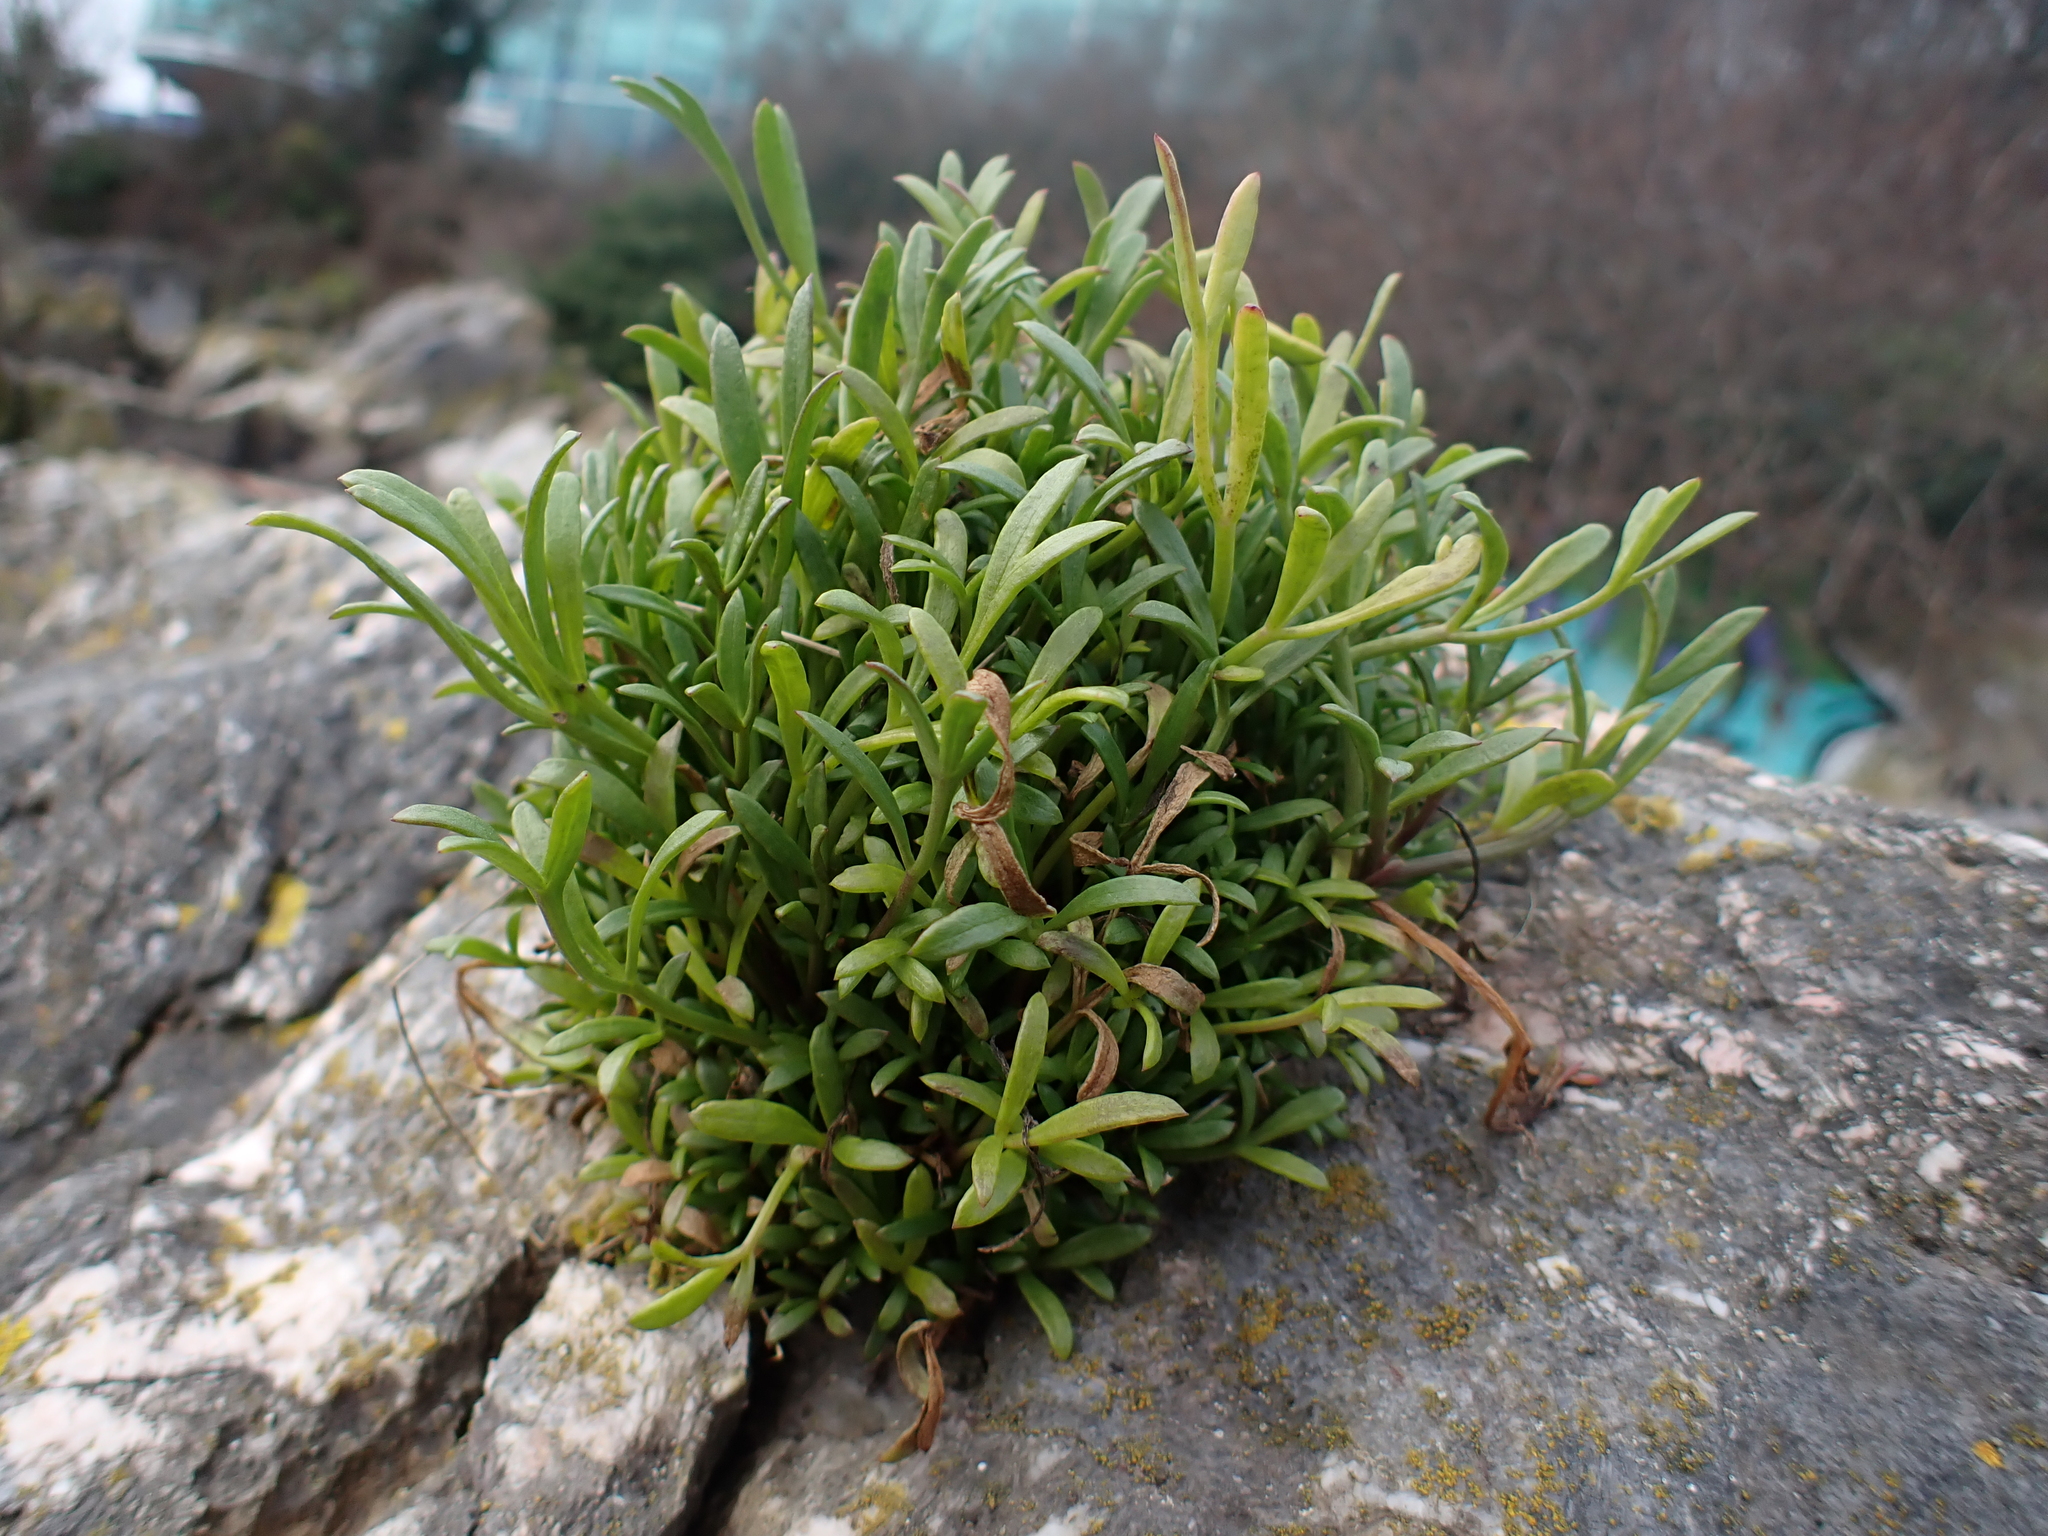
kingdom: Plantae
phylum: Tracheophyta
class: Magnoliopsida
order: Apiales
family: Apiaceae
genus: Crithmum
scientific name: Crithmum maritimum
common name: Rock samphire
